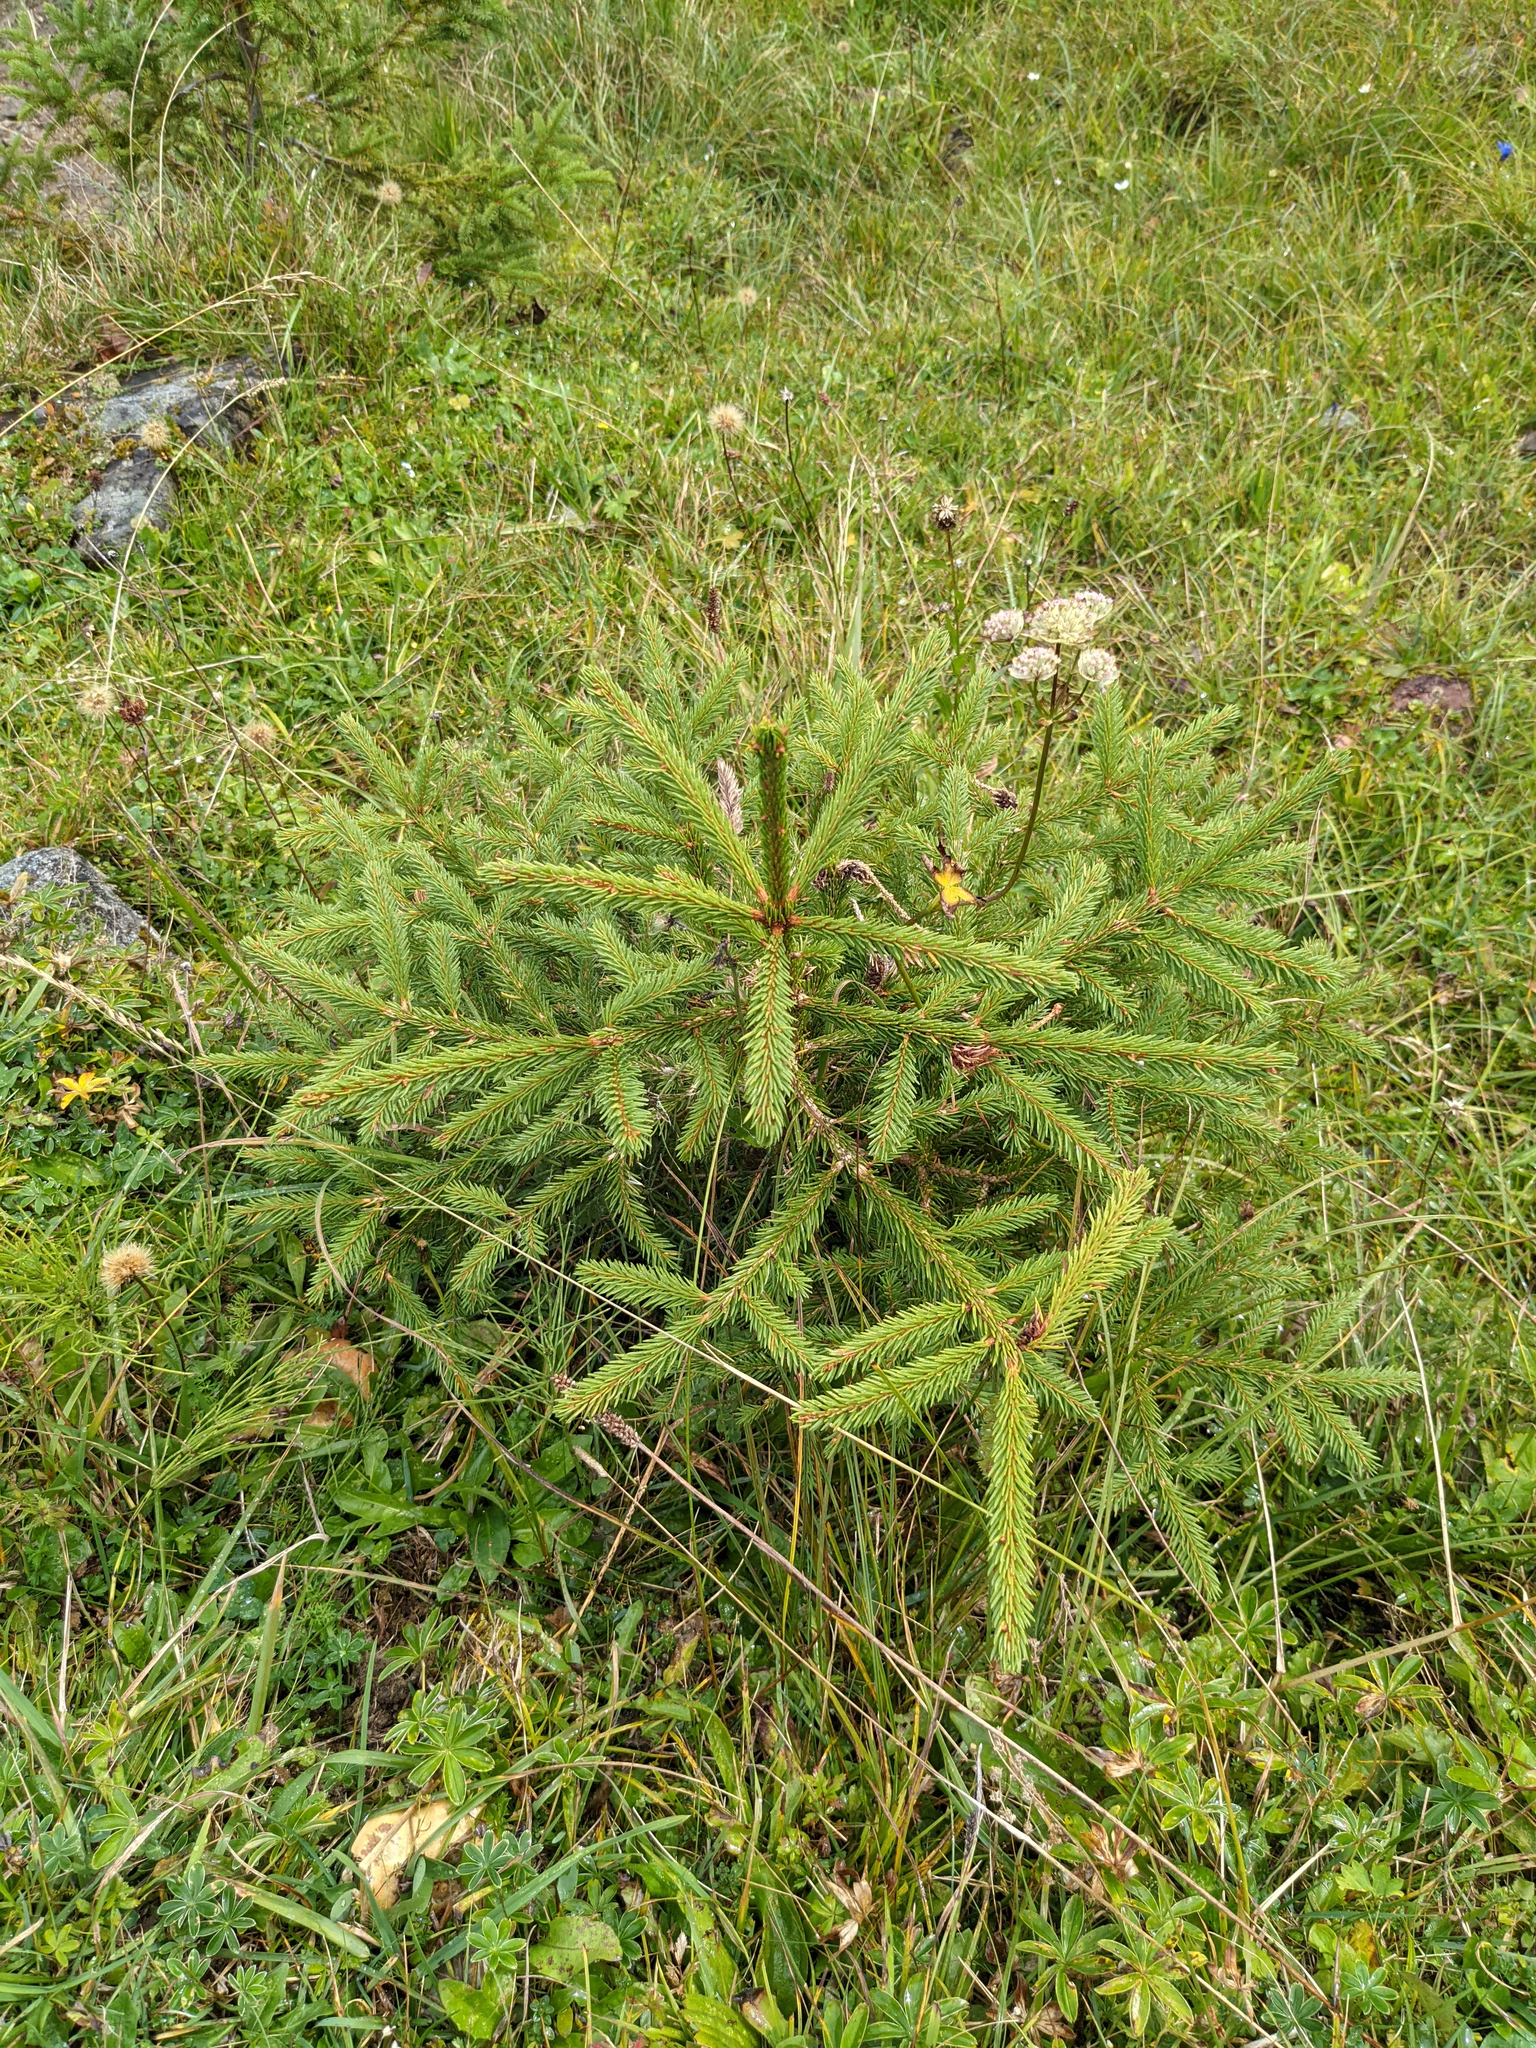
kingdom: Plantae
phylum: Tracheophyta
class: Pinopsida
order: Pinales
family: Pinaceae
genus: Picea
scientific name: Picea abies
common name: Norway spruce
